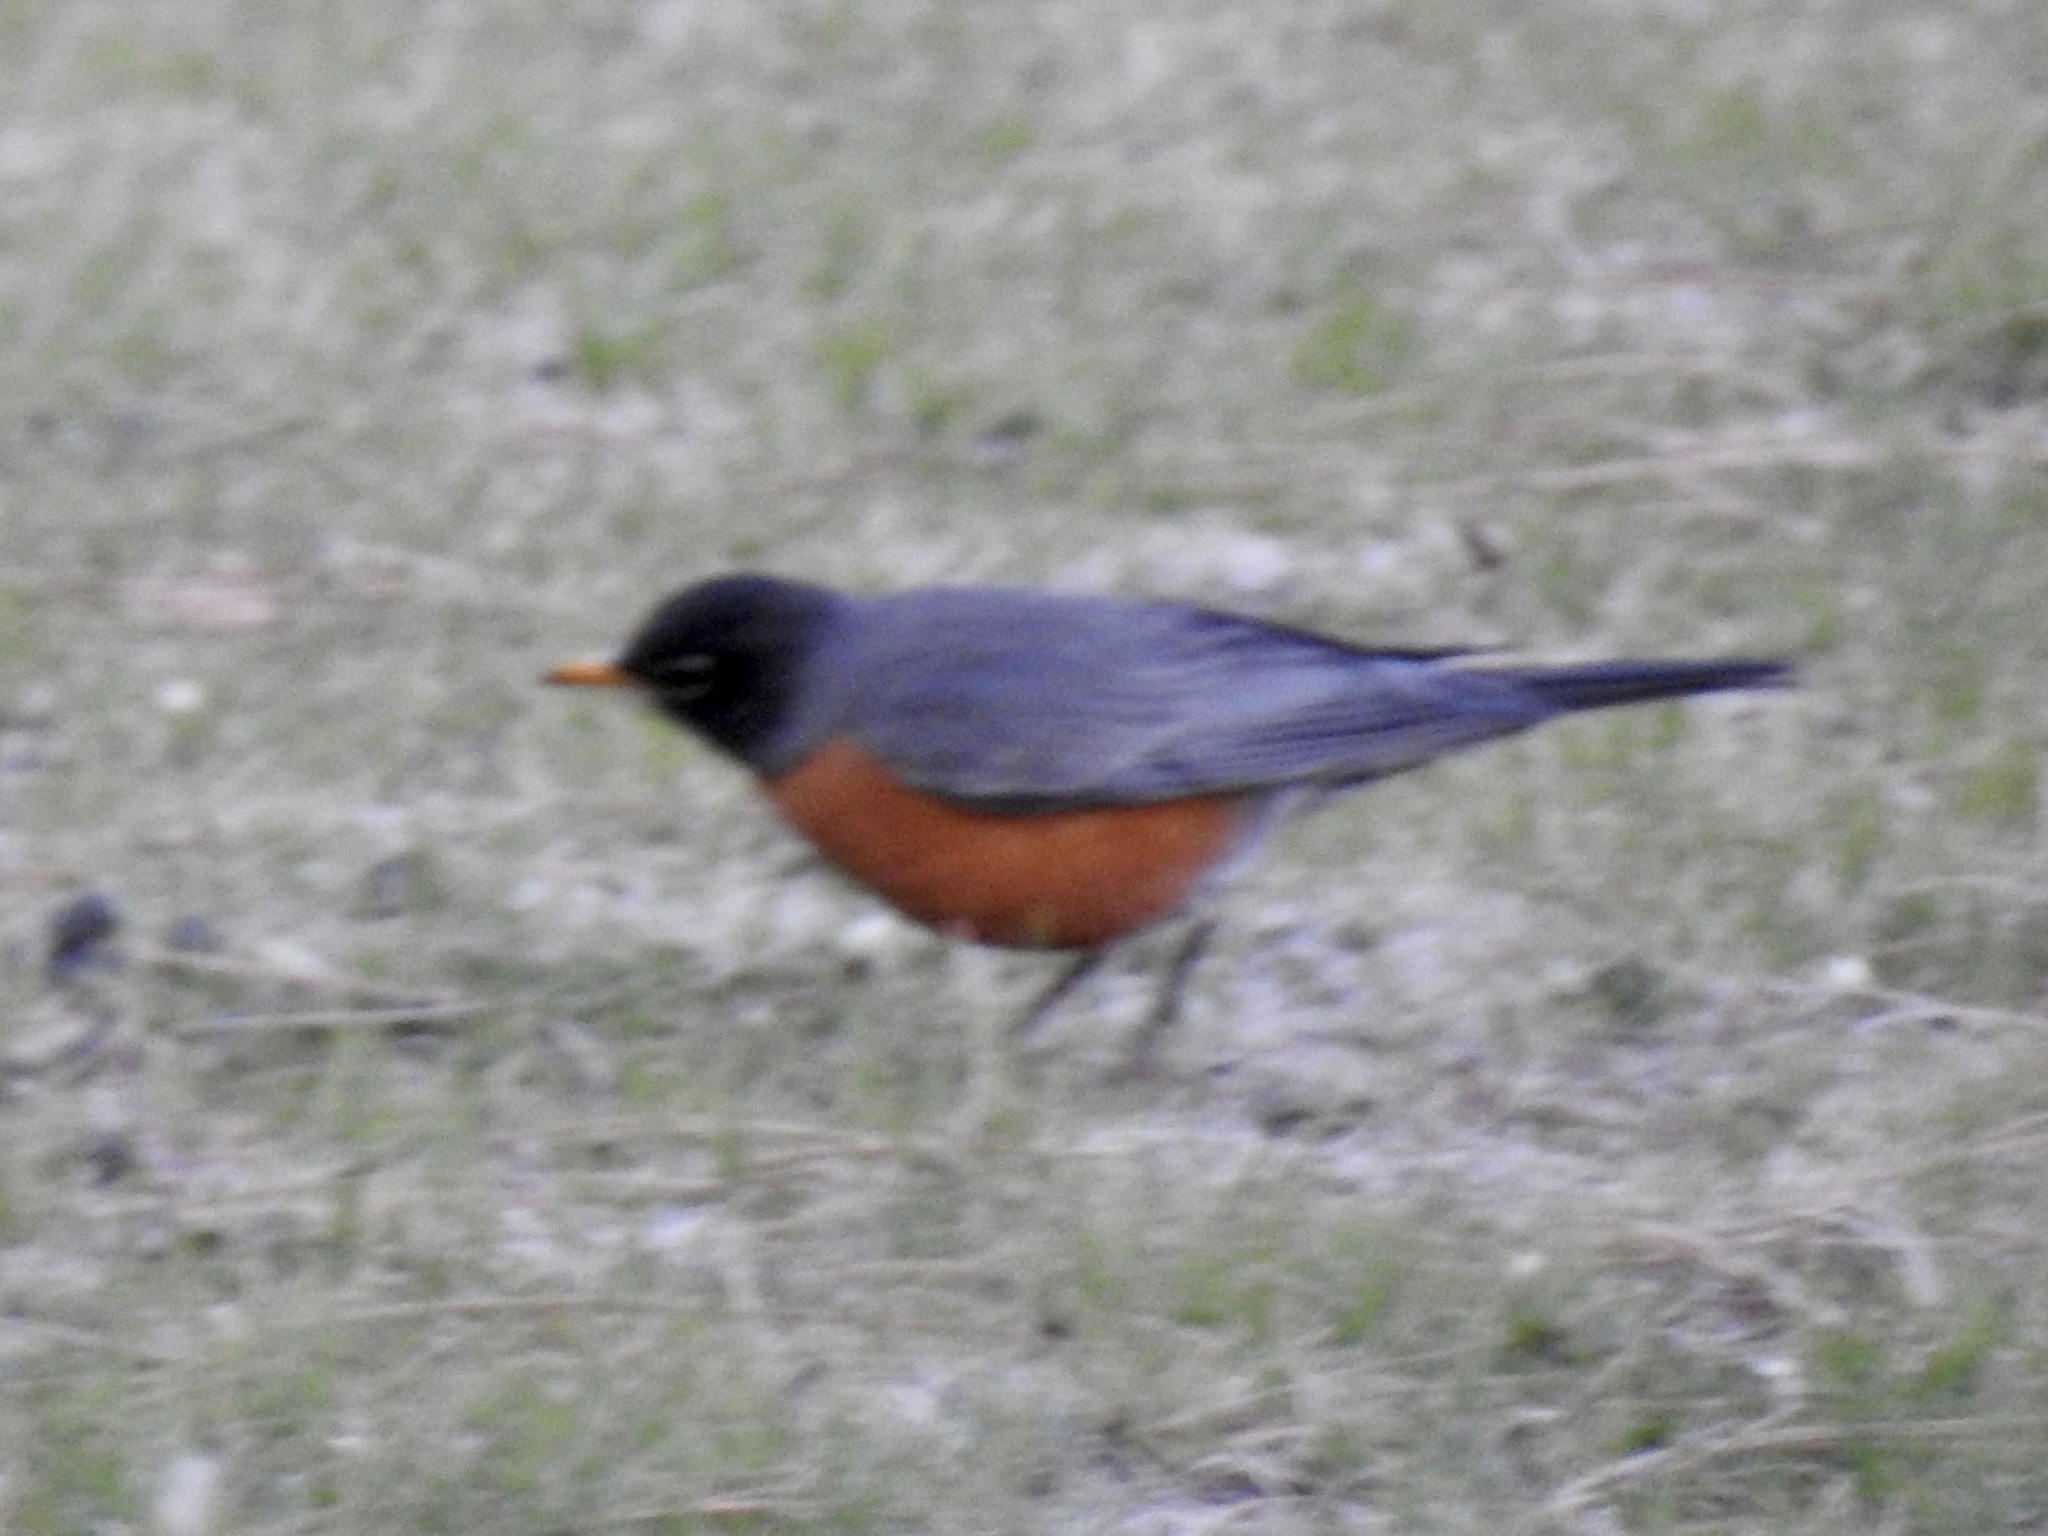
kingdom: Animalia
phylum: Chordata
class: Aves
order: Passeriformes
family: Turdidae
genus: Turdus
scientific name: Turdus migratorius
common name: American robin
